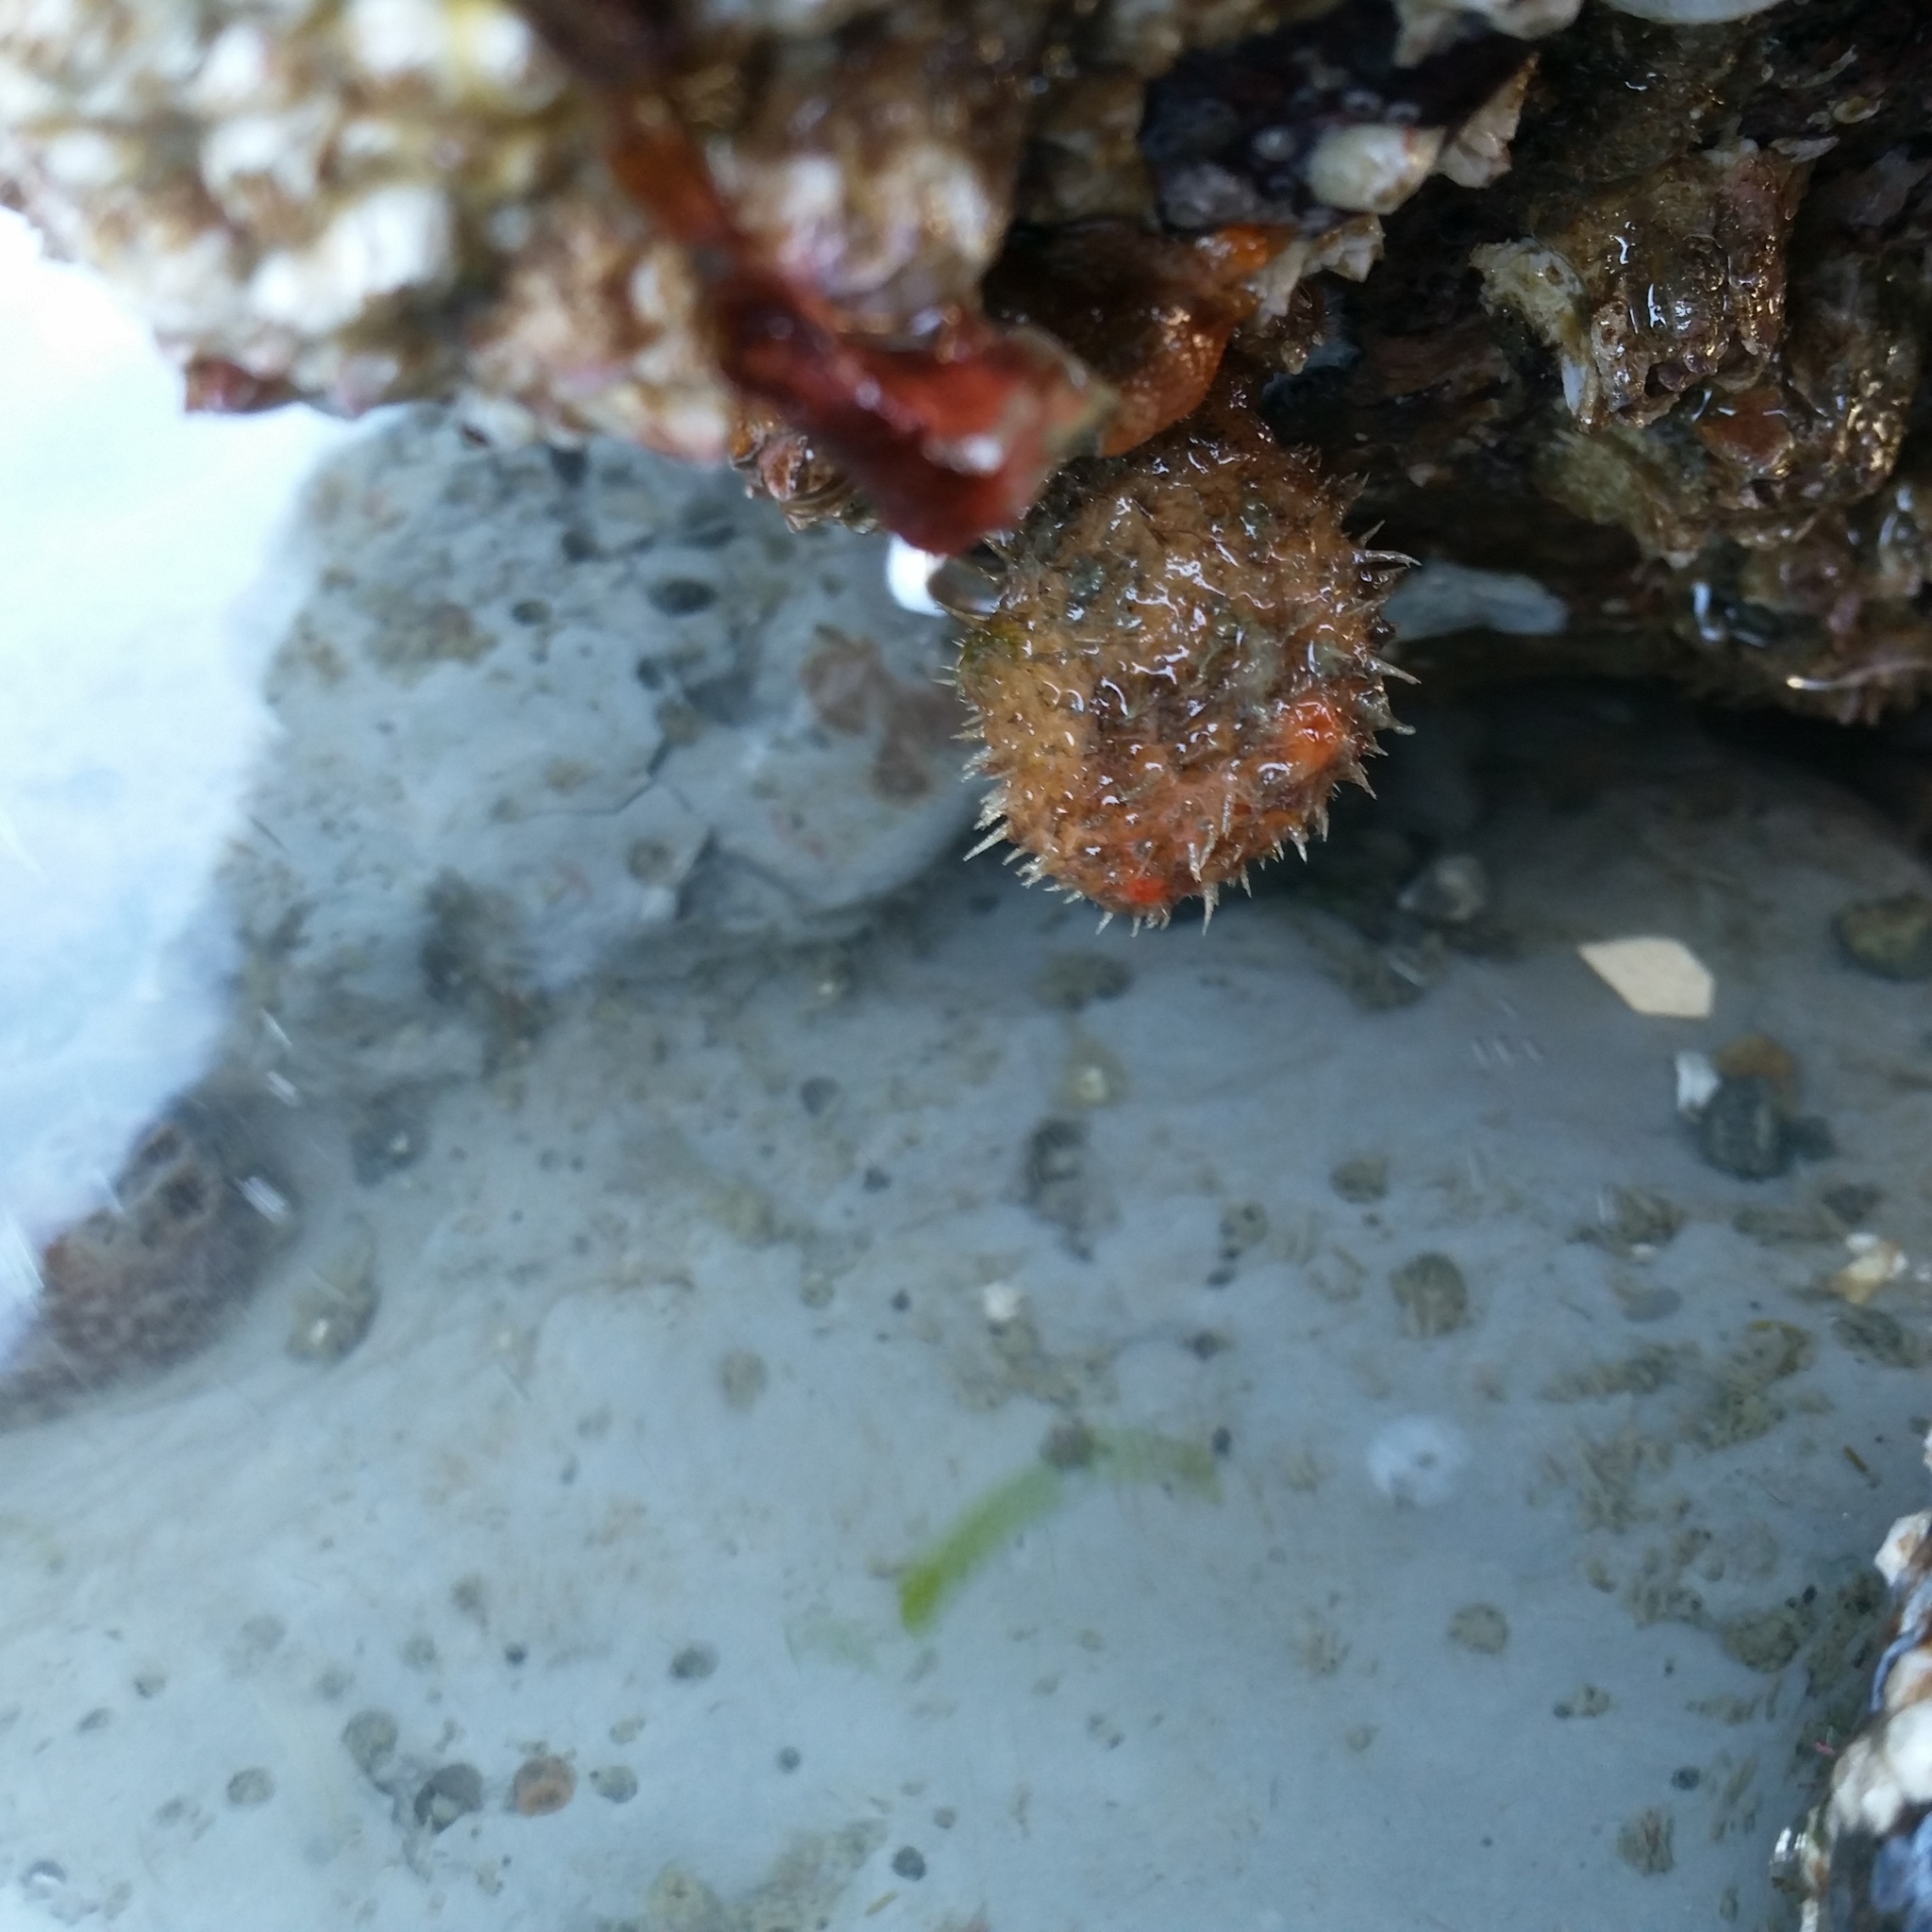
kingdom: Animalia
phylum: Chordata
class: Ascidiacea
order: Stolidobranchia
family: Pyuridae
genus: Boltenia
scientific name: Boltenia villosa
